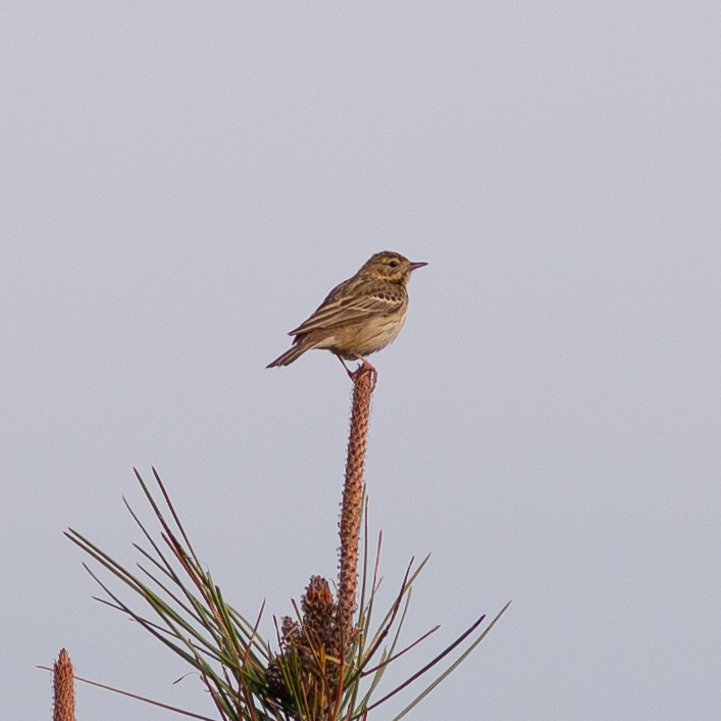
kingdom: Animalia
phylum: Chordata
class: Aves
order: Passeriformes
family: Motacillidae
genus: Anthus
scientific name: Anthus trivialis
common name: Tree pipit
